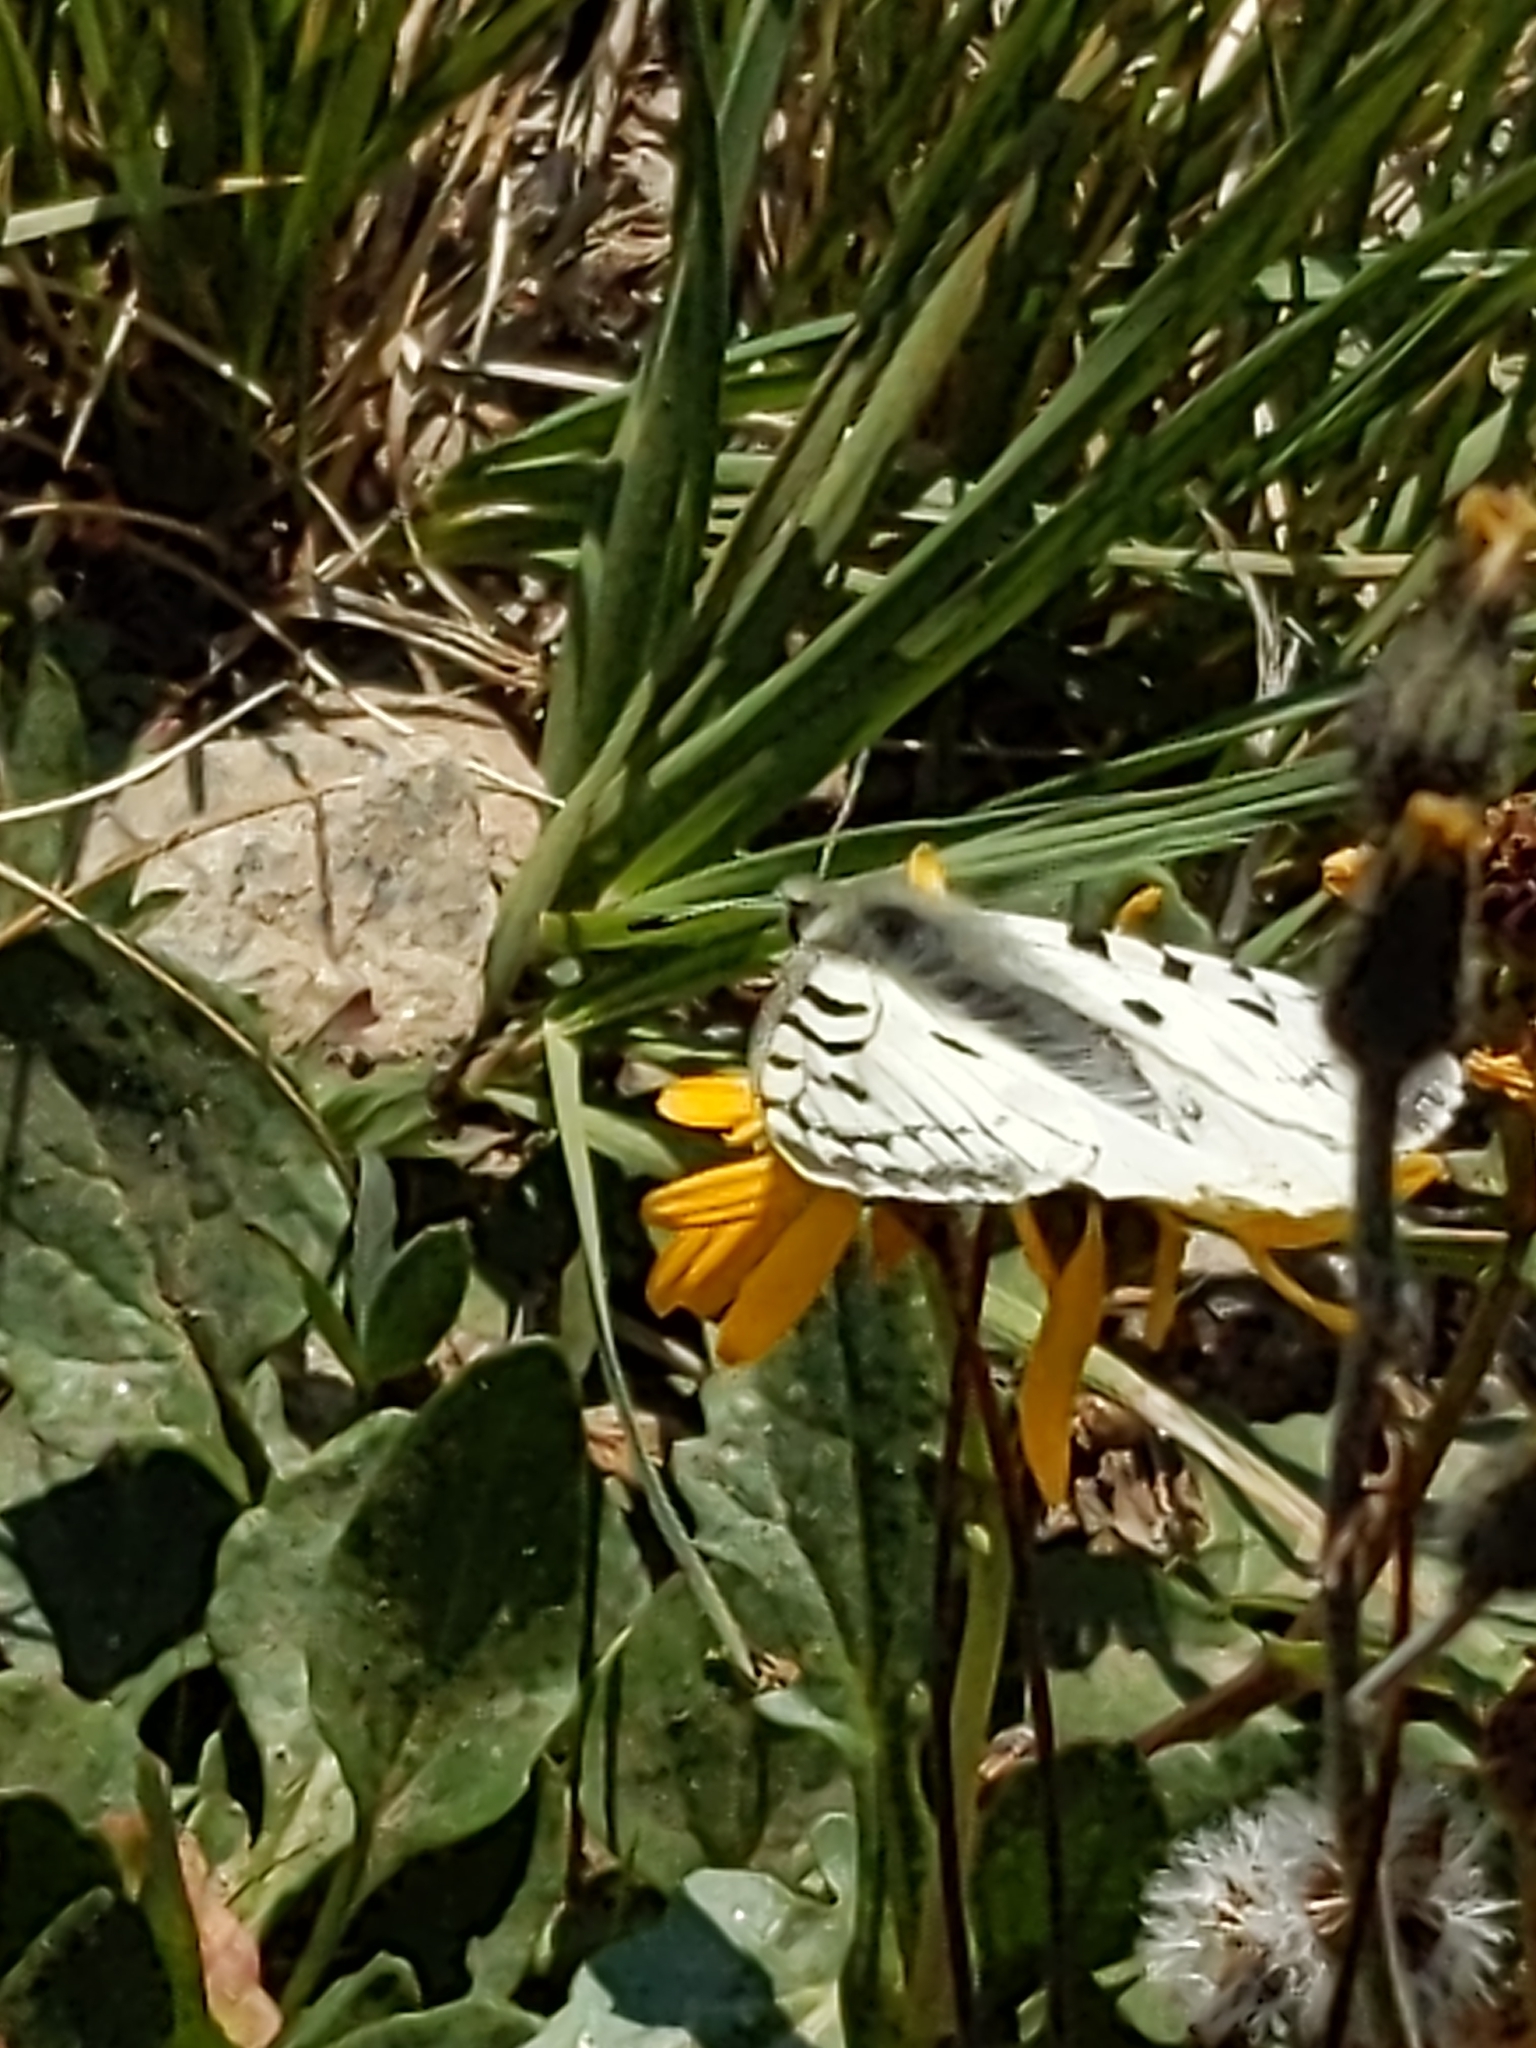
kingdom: Animalia
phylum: Arthropoda
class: Insecta
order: Lepidoptera
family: Papilionidae
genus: Parnassius
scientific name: Parnassius smintheus
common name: Mountain parnassian
